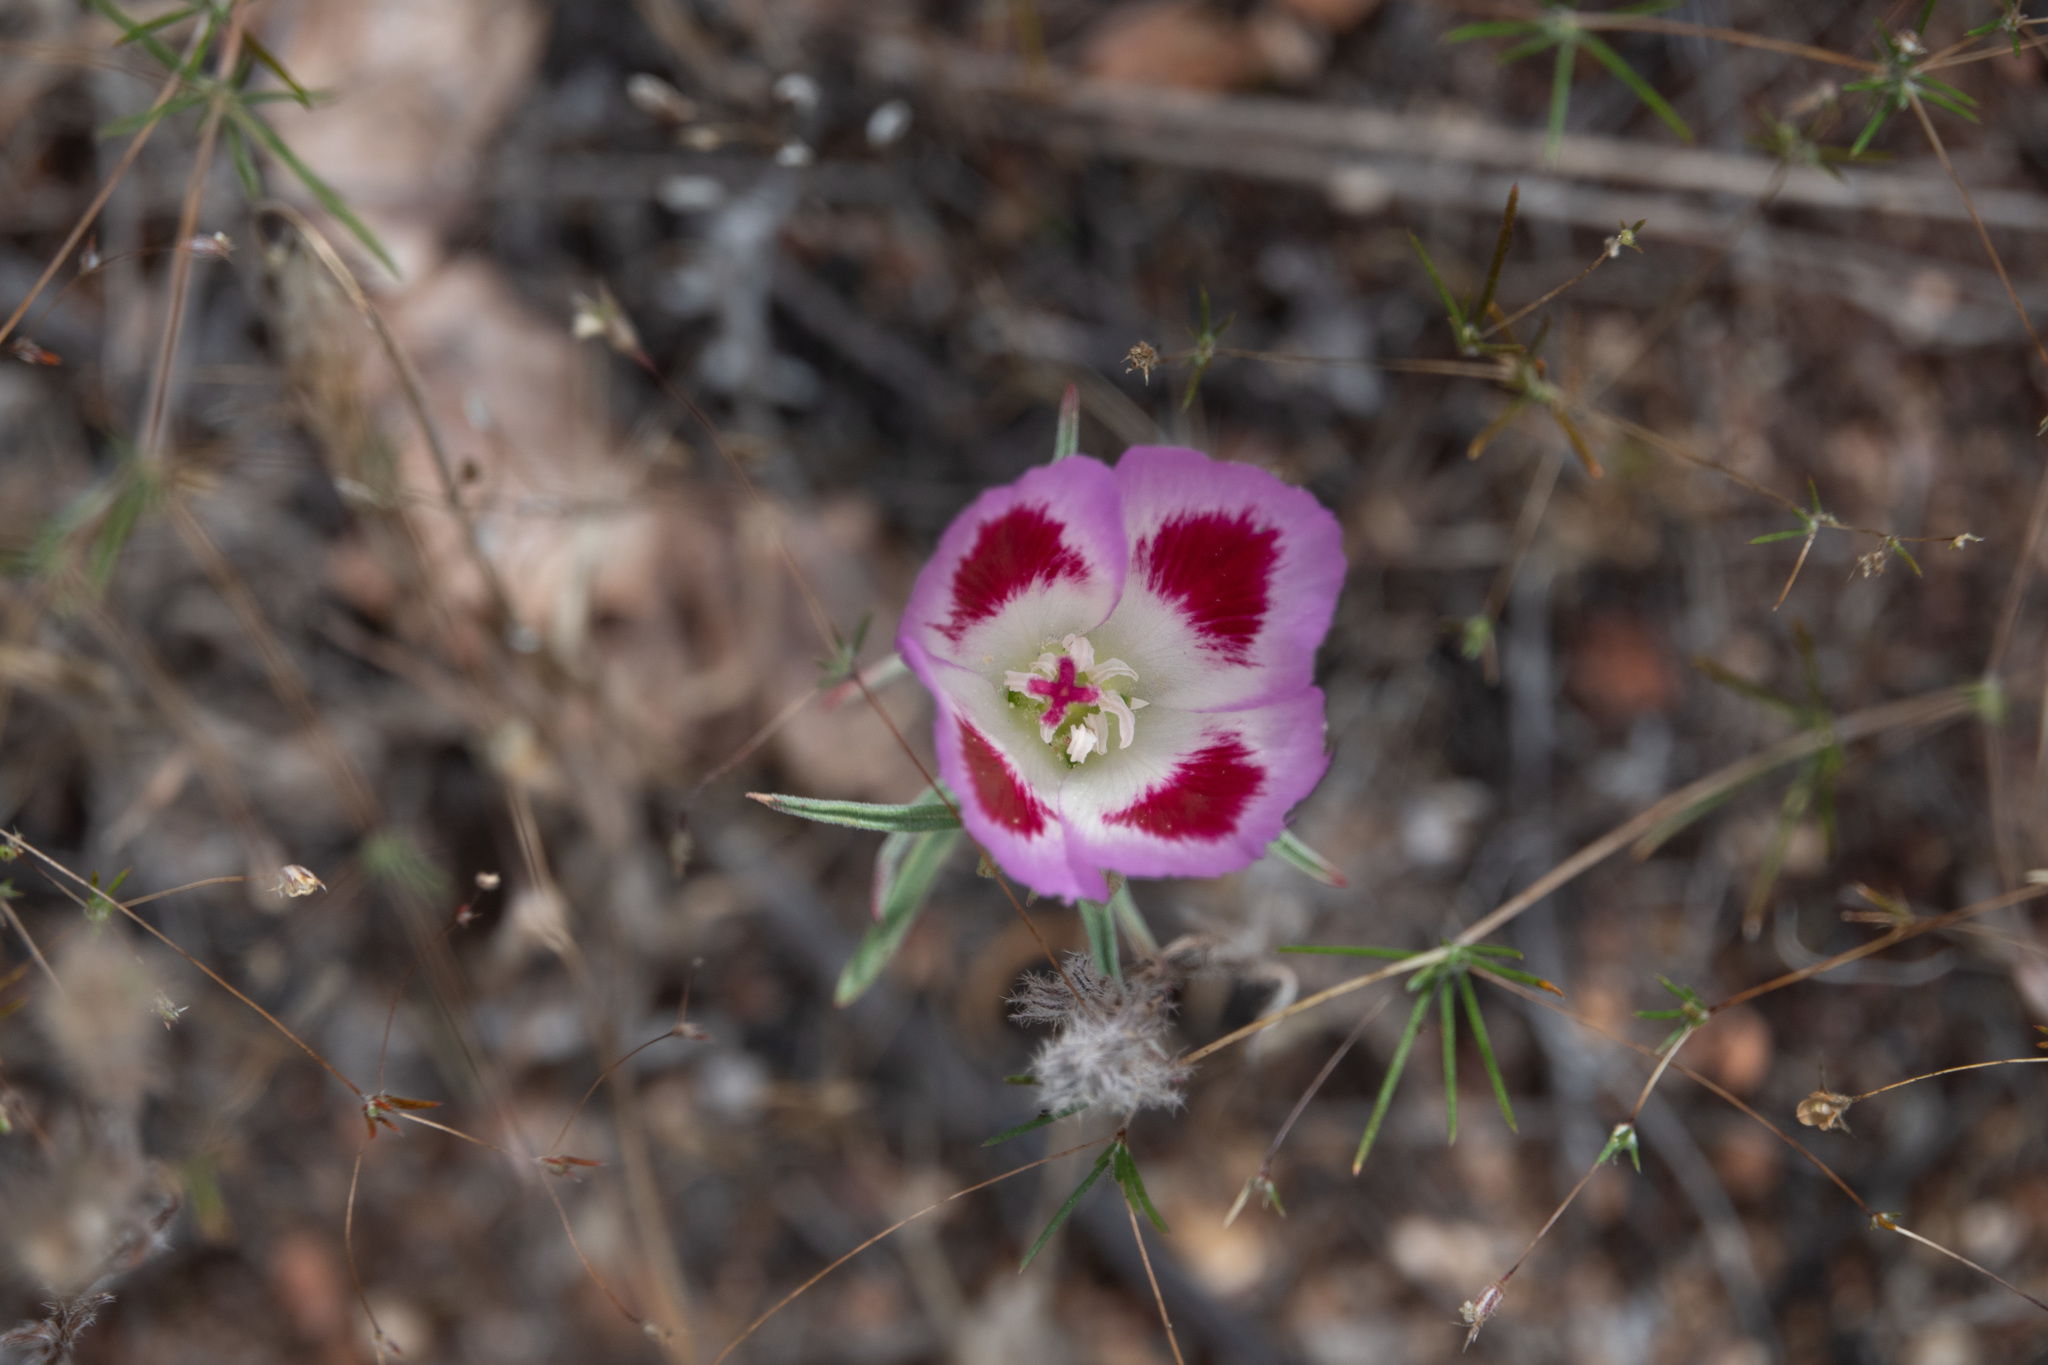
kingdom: Plantae
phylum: Tracheophyta
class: Magnoliopsida
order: Myrtales
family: Onagraceae
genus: Clarkia
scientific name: Clarkia speciosa
